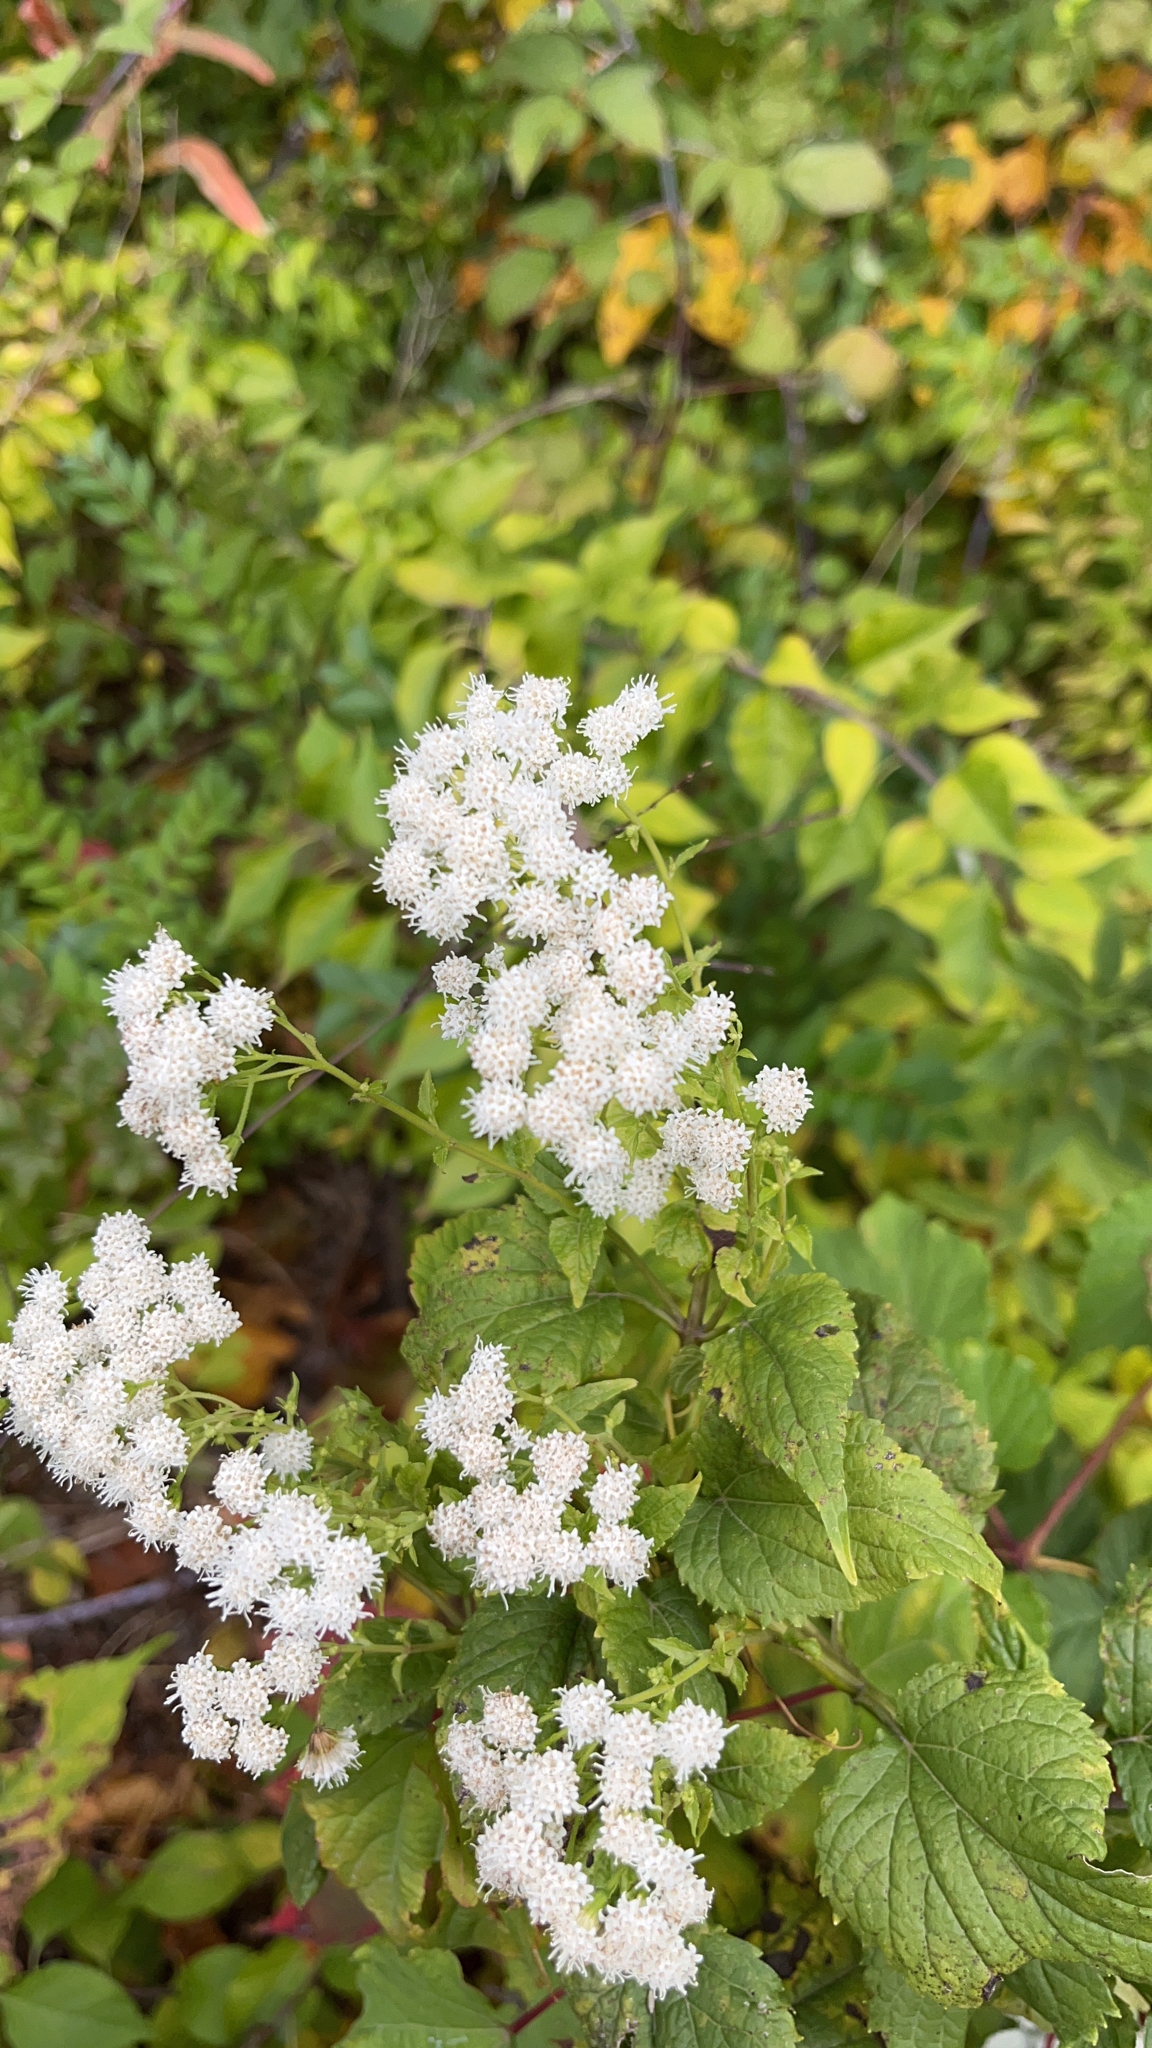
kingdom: Plantae
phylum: Tracheophyta
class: Magnoliopsida
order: Asterales
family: Asteraceae
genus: Ageratina
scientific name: Ageratina altissima
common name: White snakeroot
